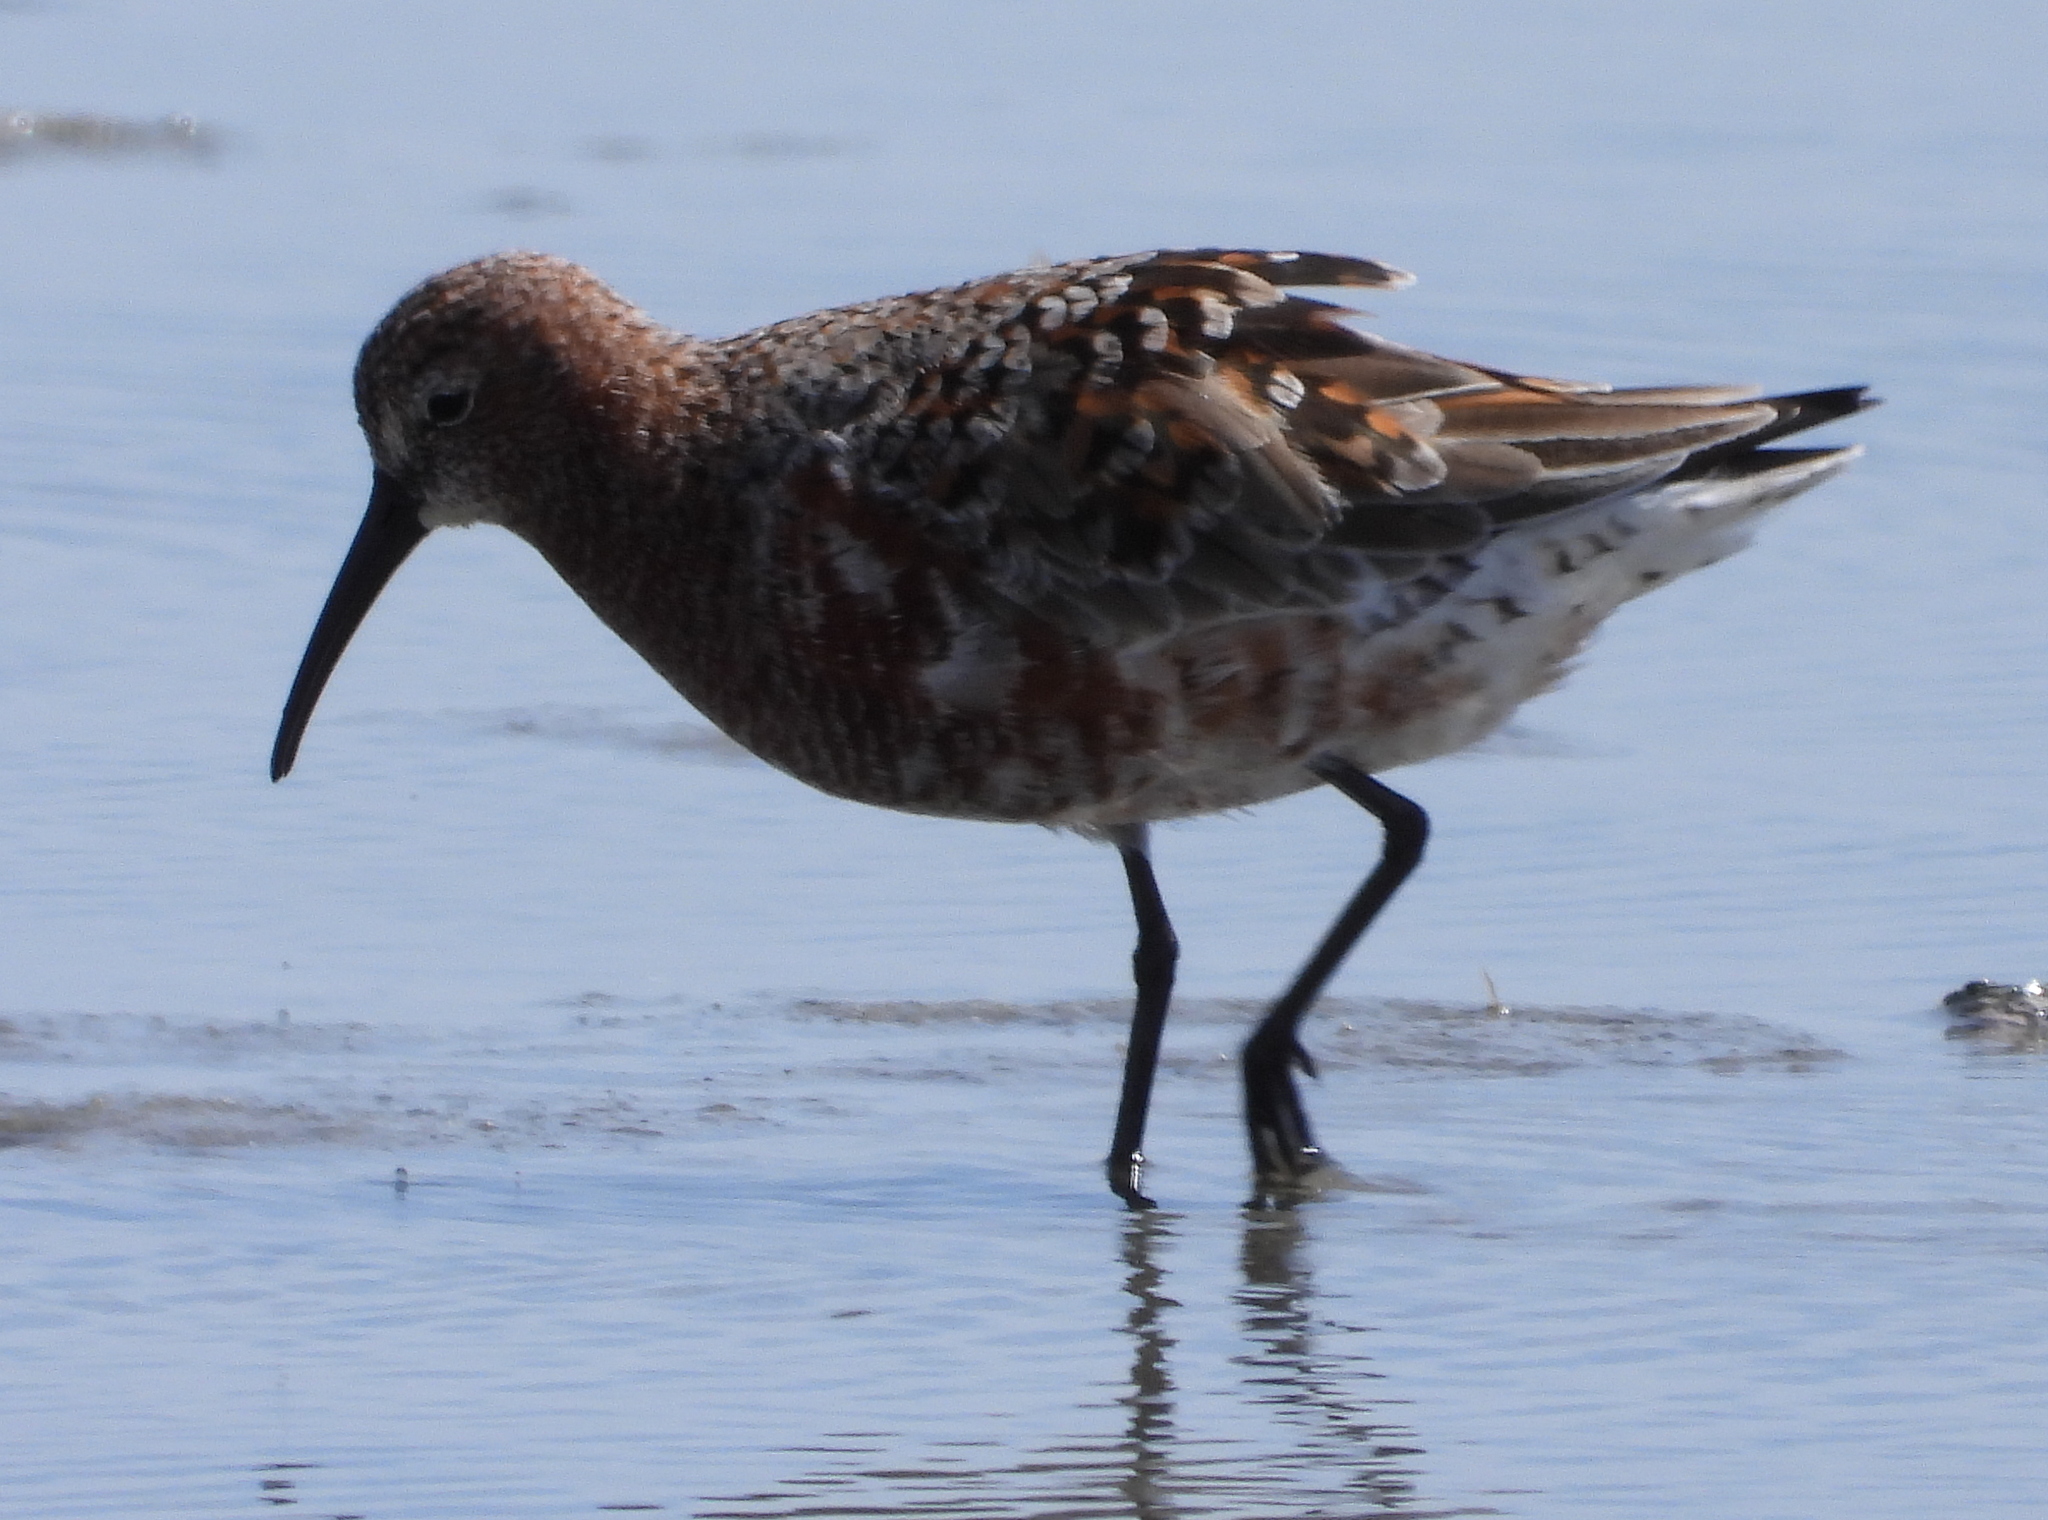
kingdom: Animalia
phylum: Chordata
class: Aves
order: Charadriiformes
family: Scolopacidae
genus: Calidris
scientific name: Calidris ferruginea
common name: Curlew sandpiper
